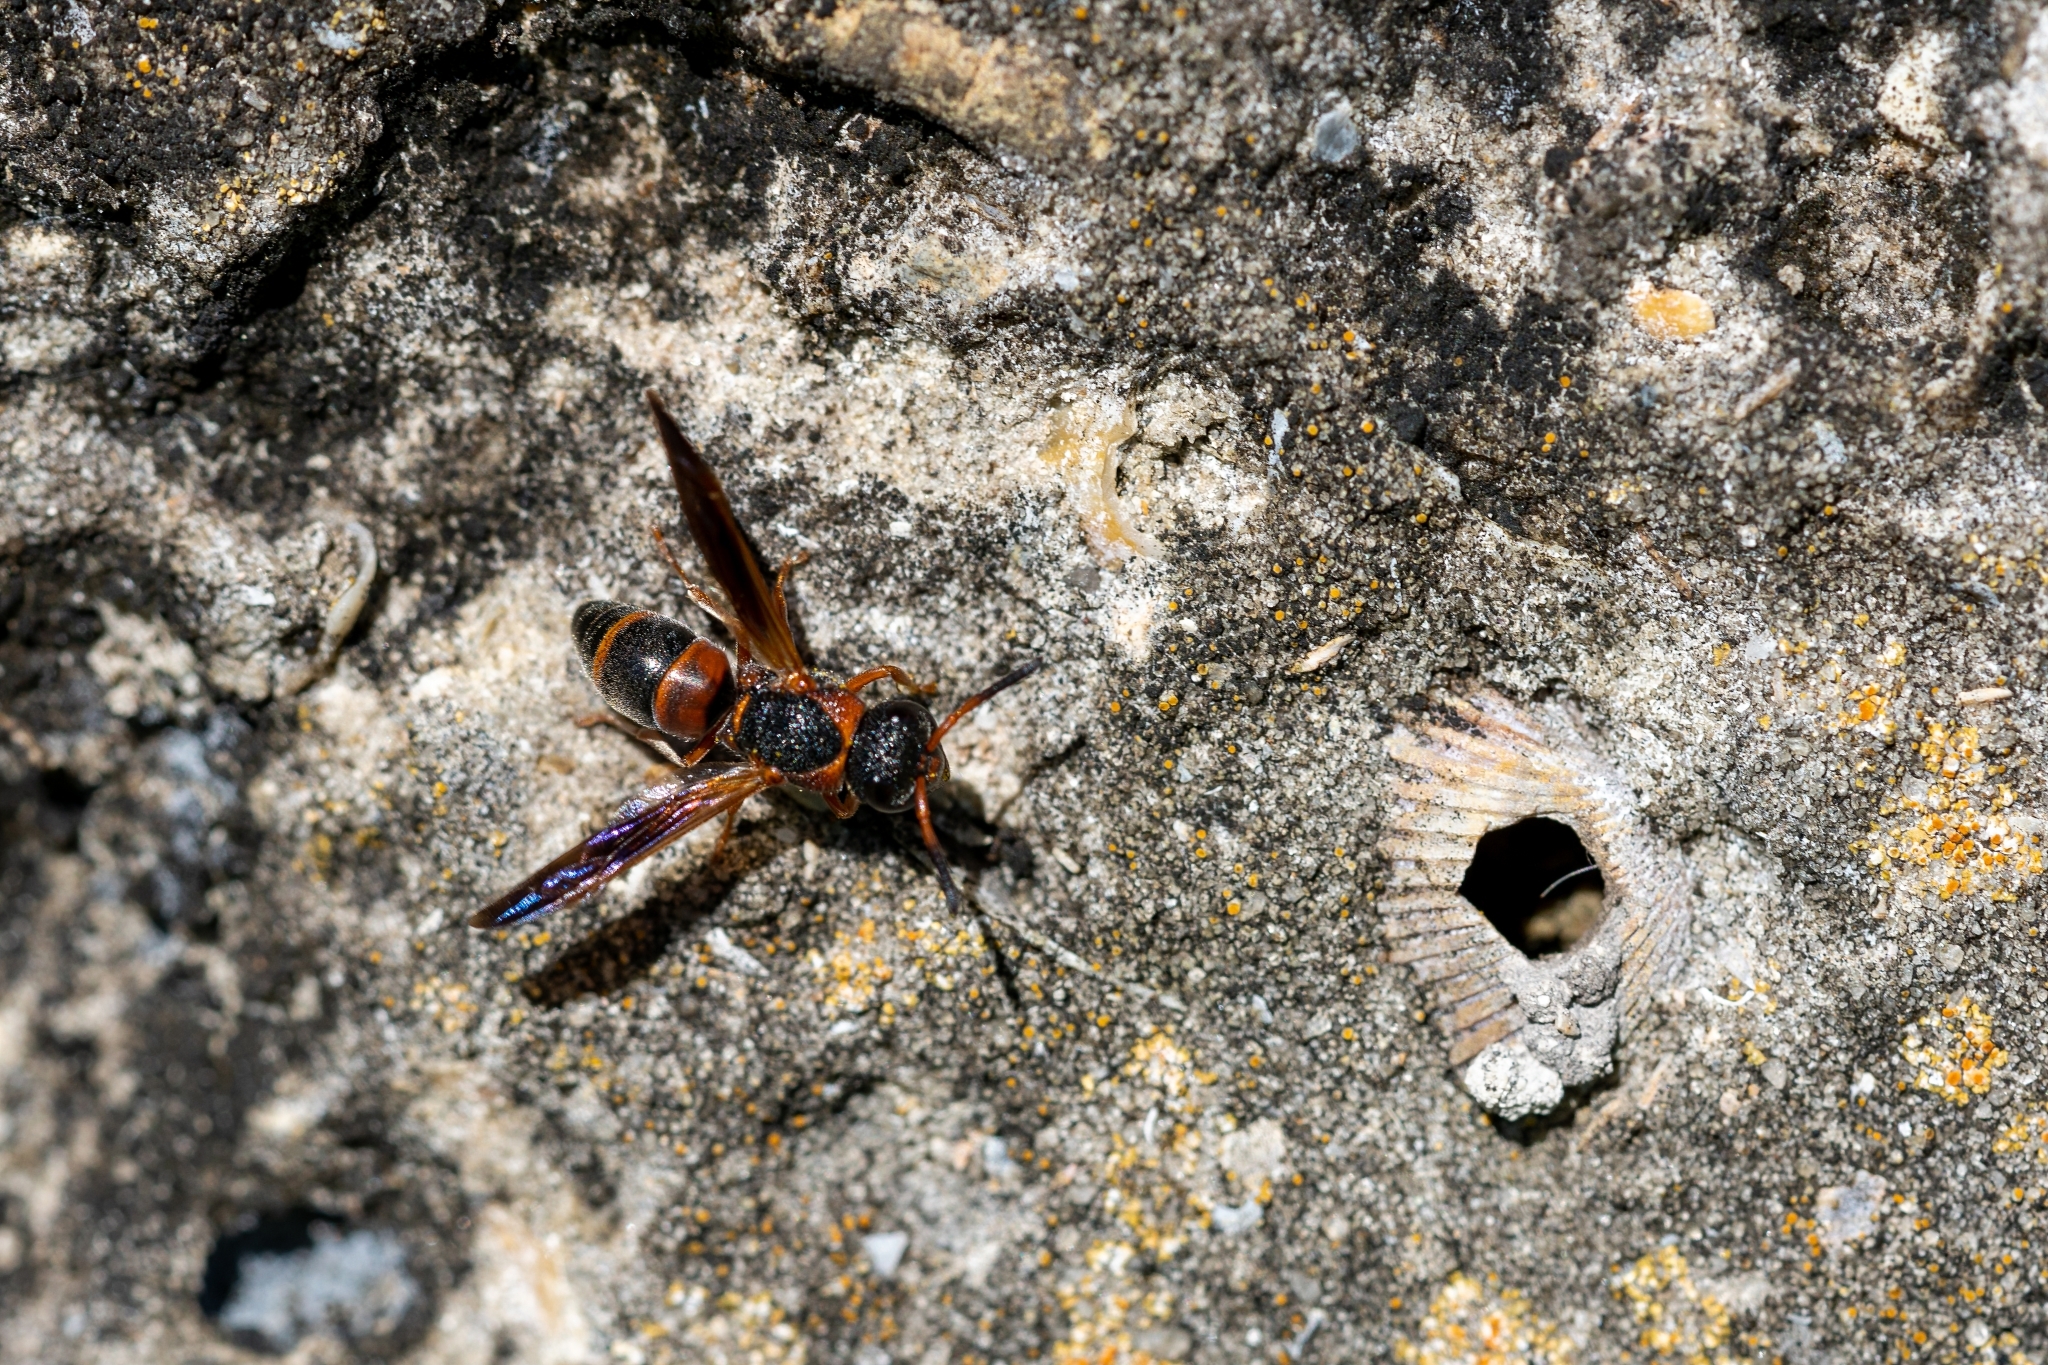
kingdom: Animalia
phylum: Arthropoda
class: Insecta
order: Hymenoptera
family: Eumenidae
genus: Pachodynerus
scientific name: Pachodynerus erynnis
